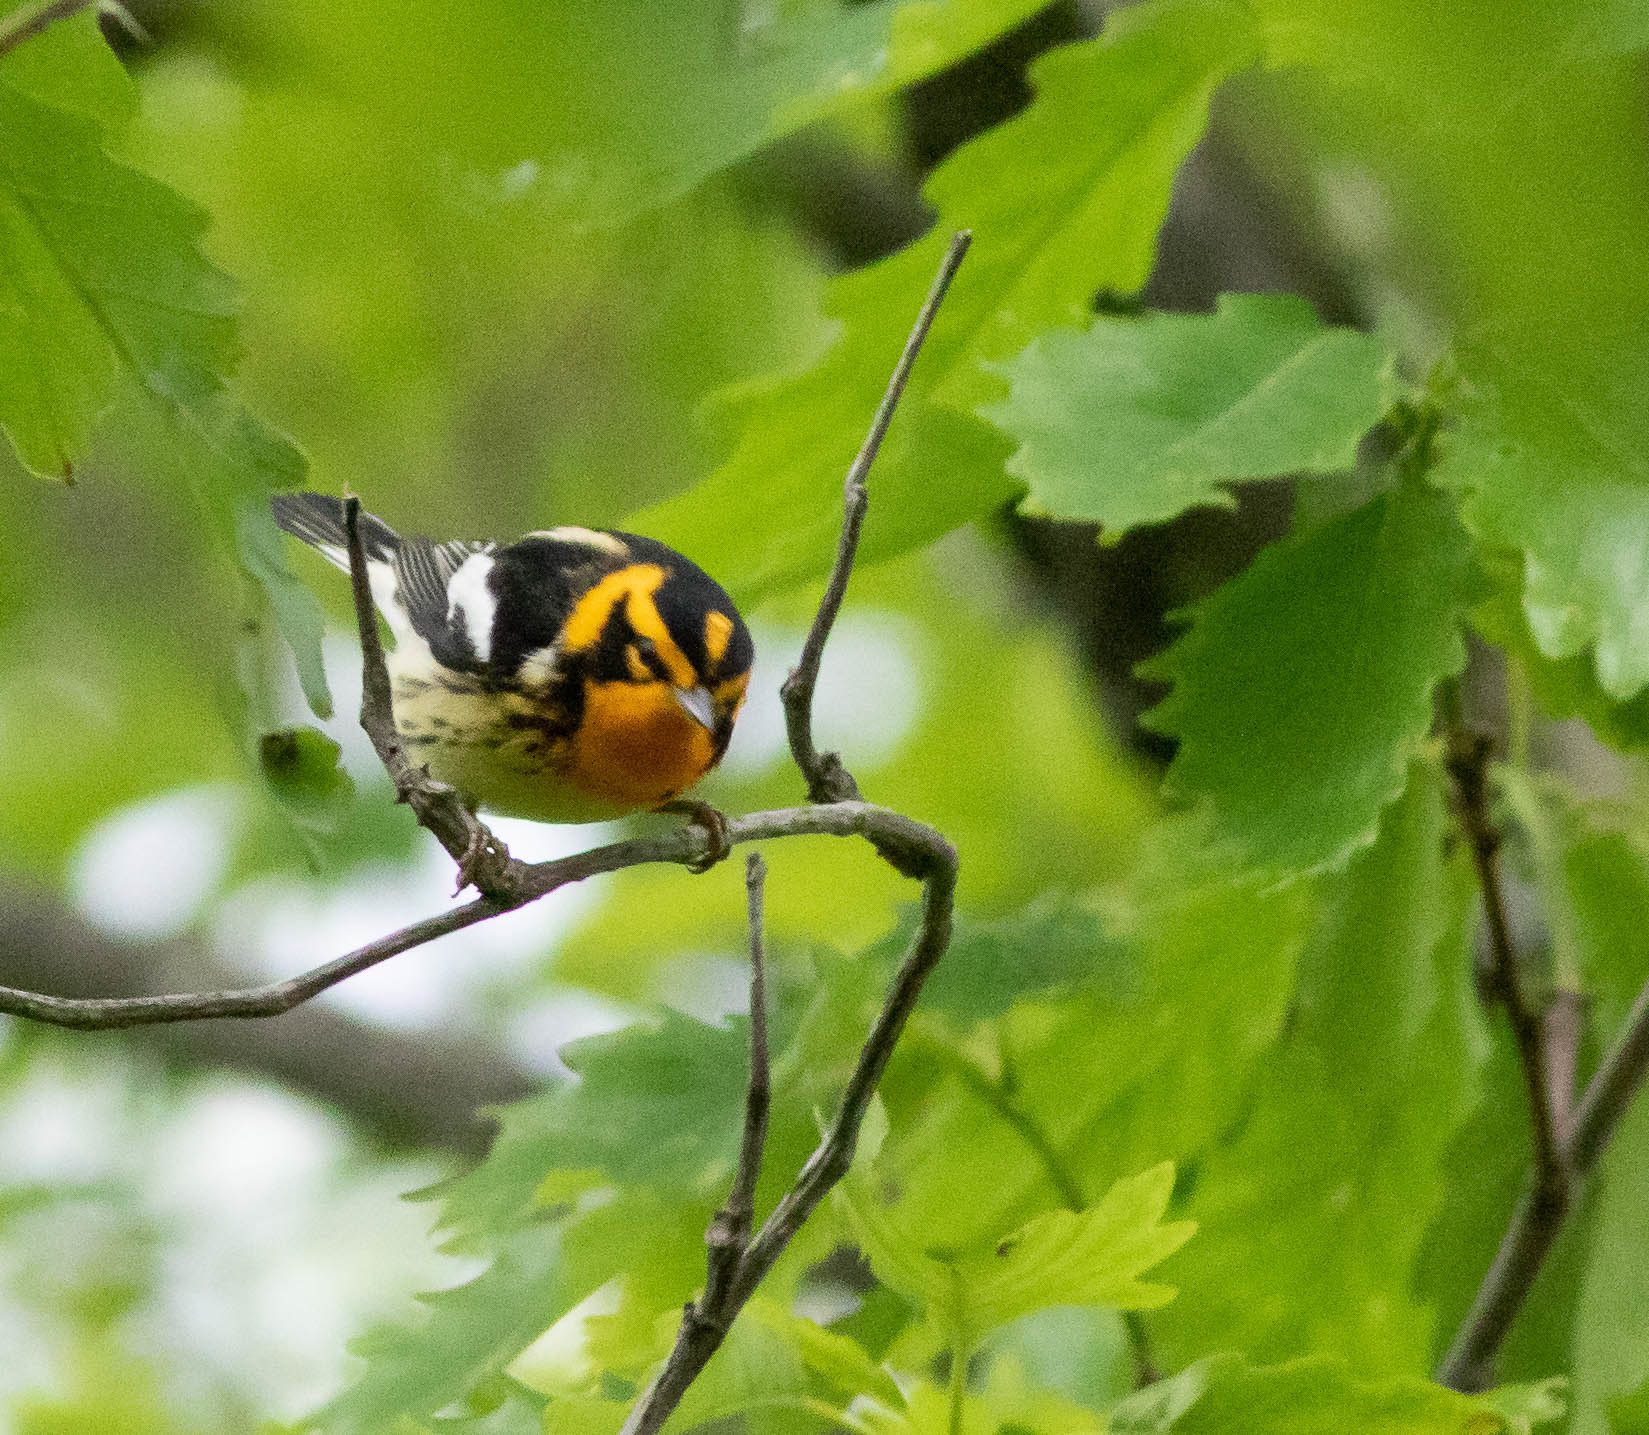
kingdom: Animalia
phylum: Chordata
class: Aves
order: Passeriformes
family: Parulidae
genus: Setophaga
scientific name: Setophaga fusca
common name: Blackburnian warbler
